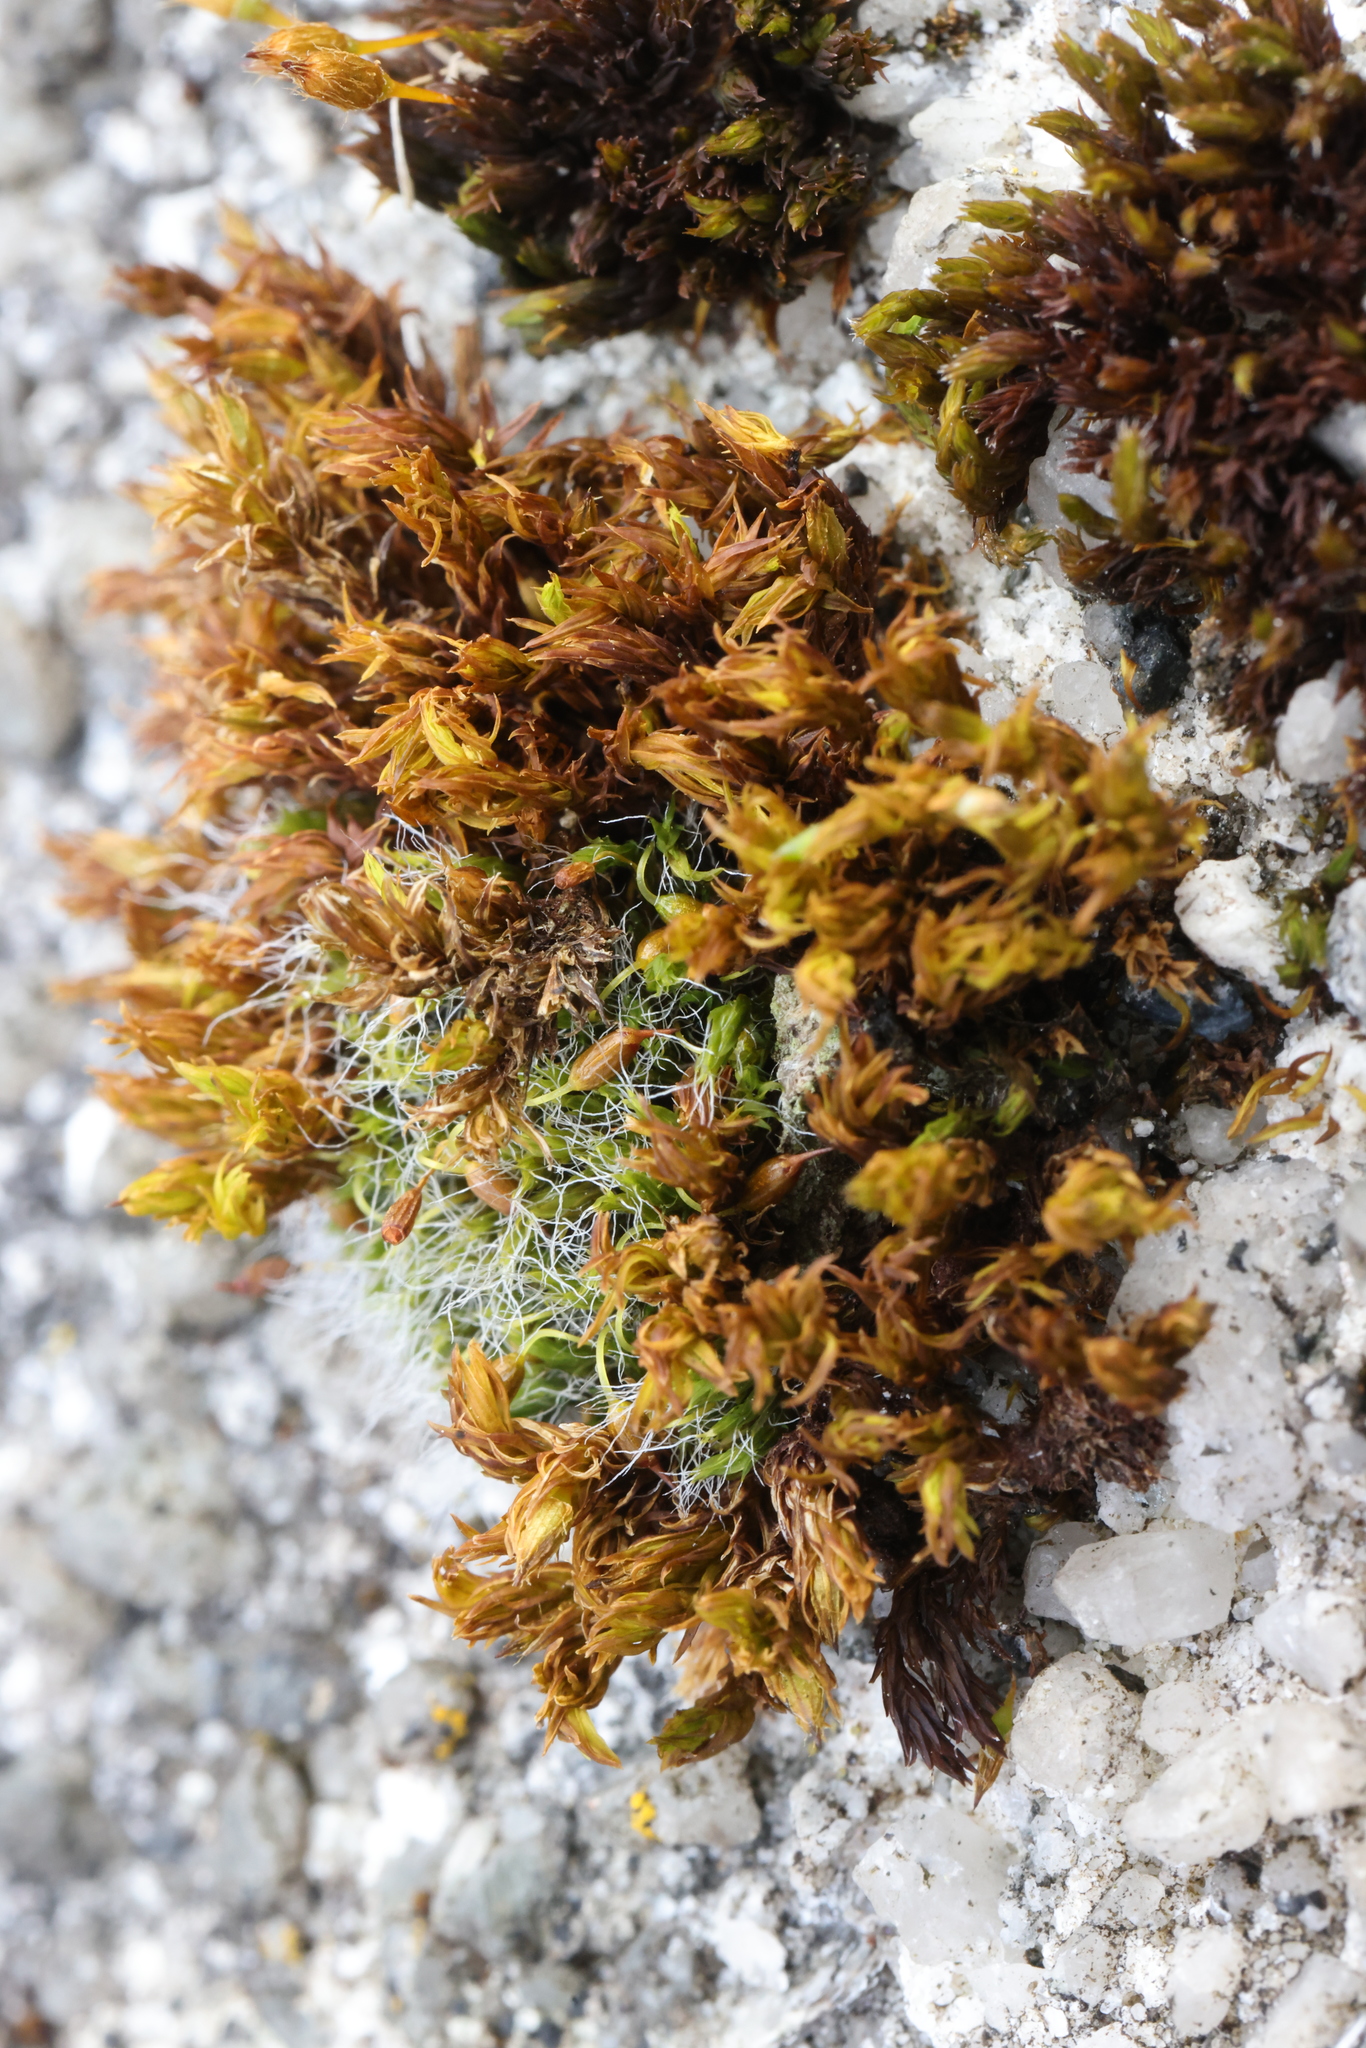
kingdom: Plantae
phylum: Bryophyta
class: Bryopsida
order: Orthotrichales
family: Orthotrichaceae
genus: Orthotrichum
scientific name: Orthotrichum anomalum
